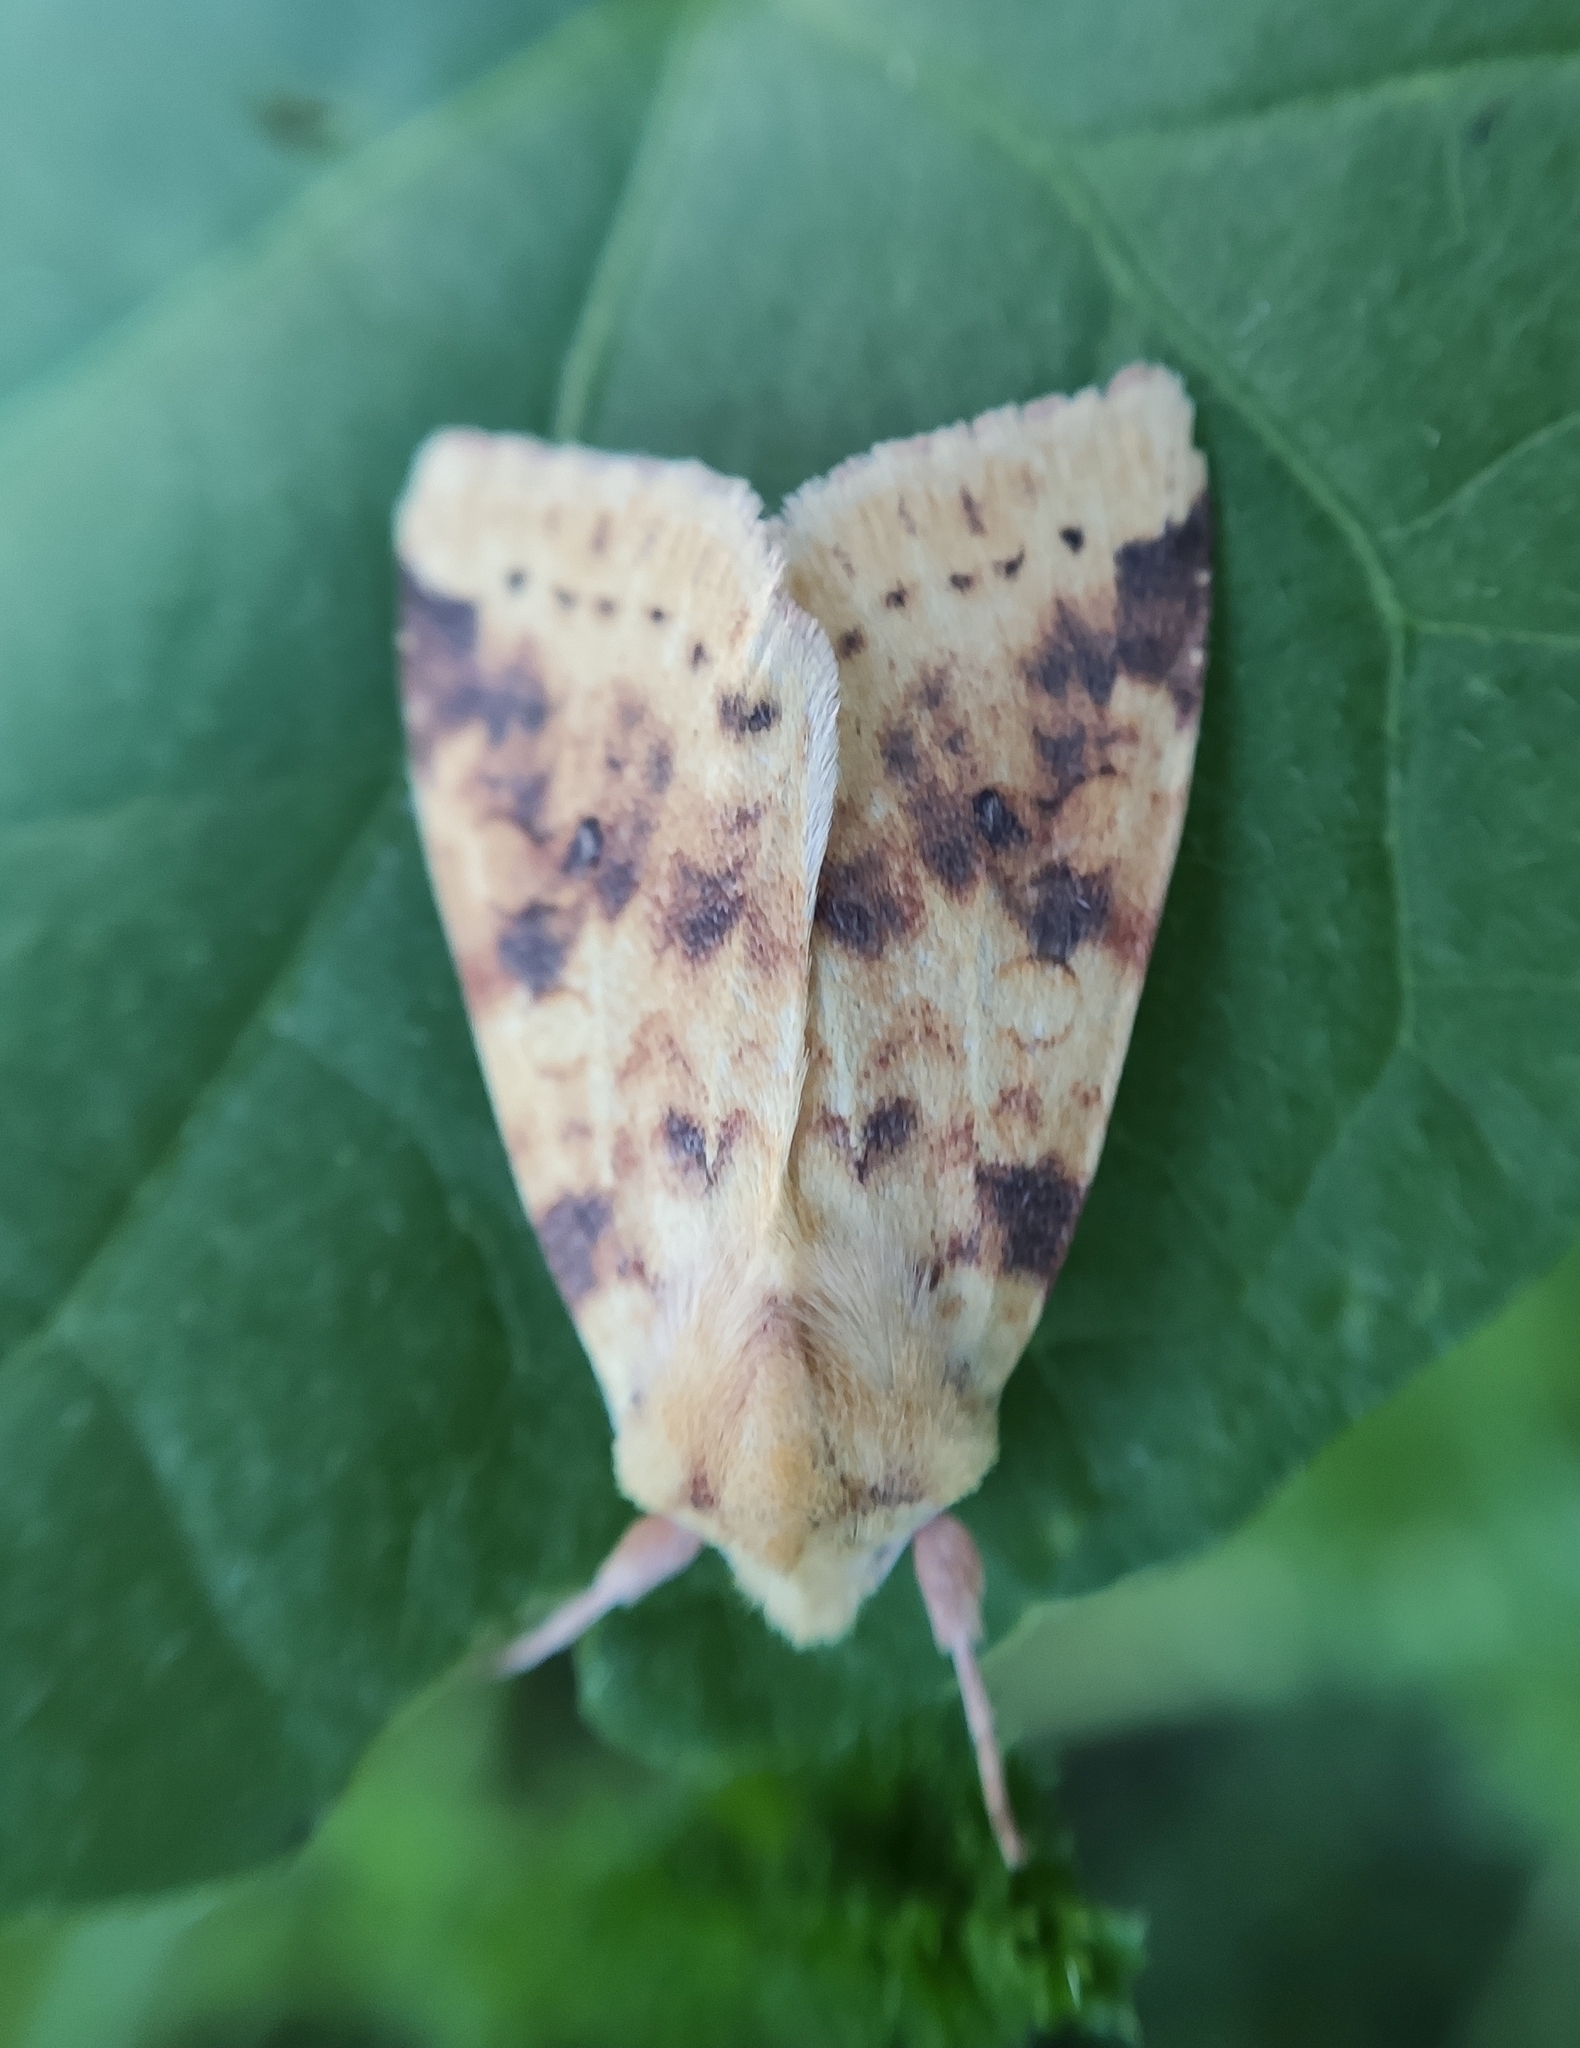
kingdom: Animalia
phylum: Arthropoda
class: Insecta
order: Lepidoptera
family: Noctuidae
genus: Xanthia
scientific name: Xanthia icteritia
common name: The sallow
